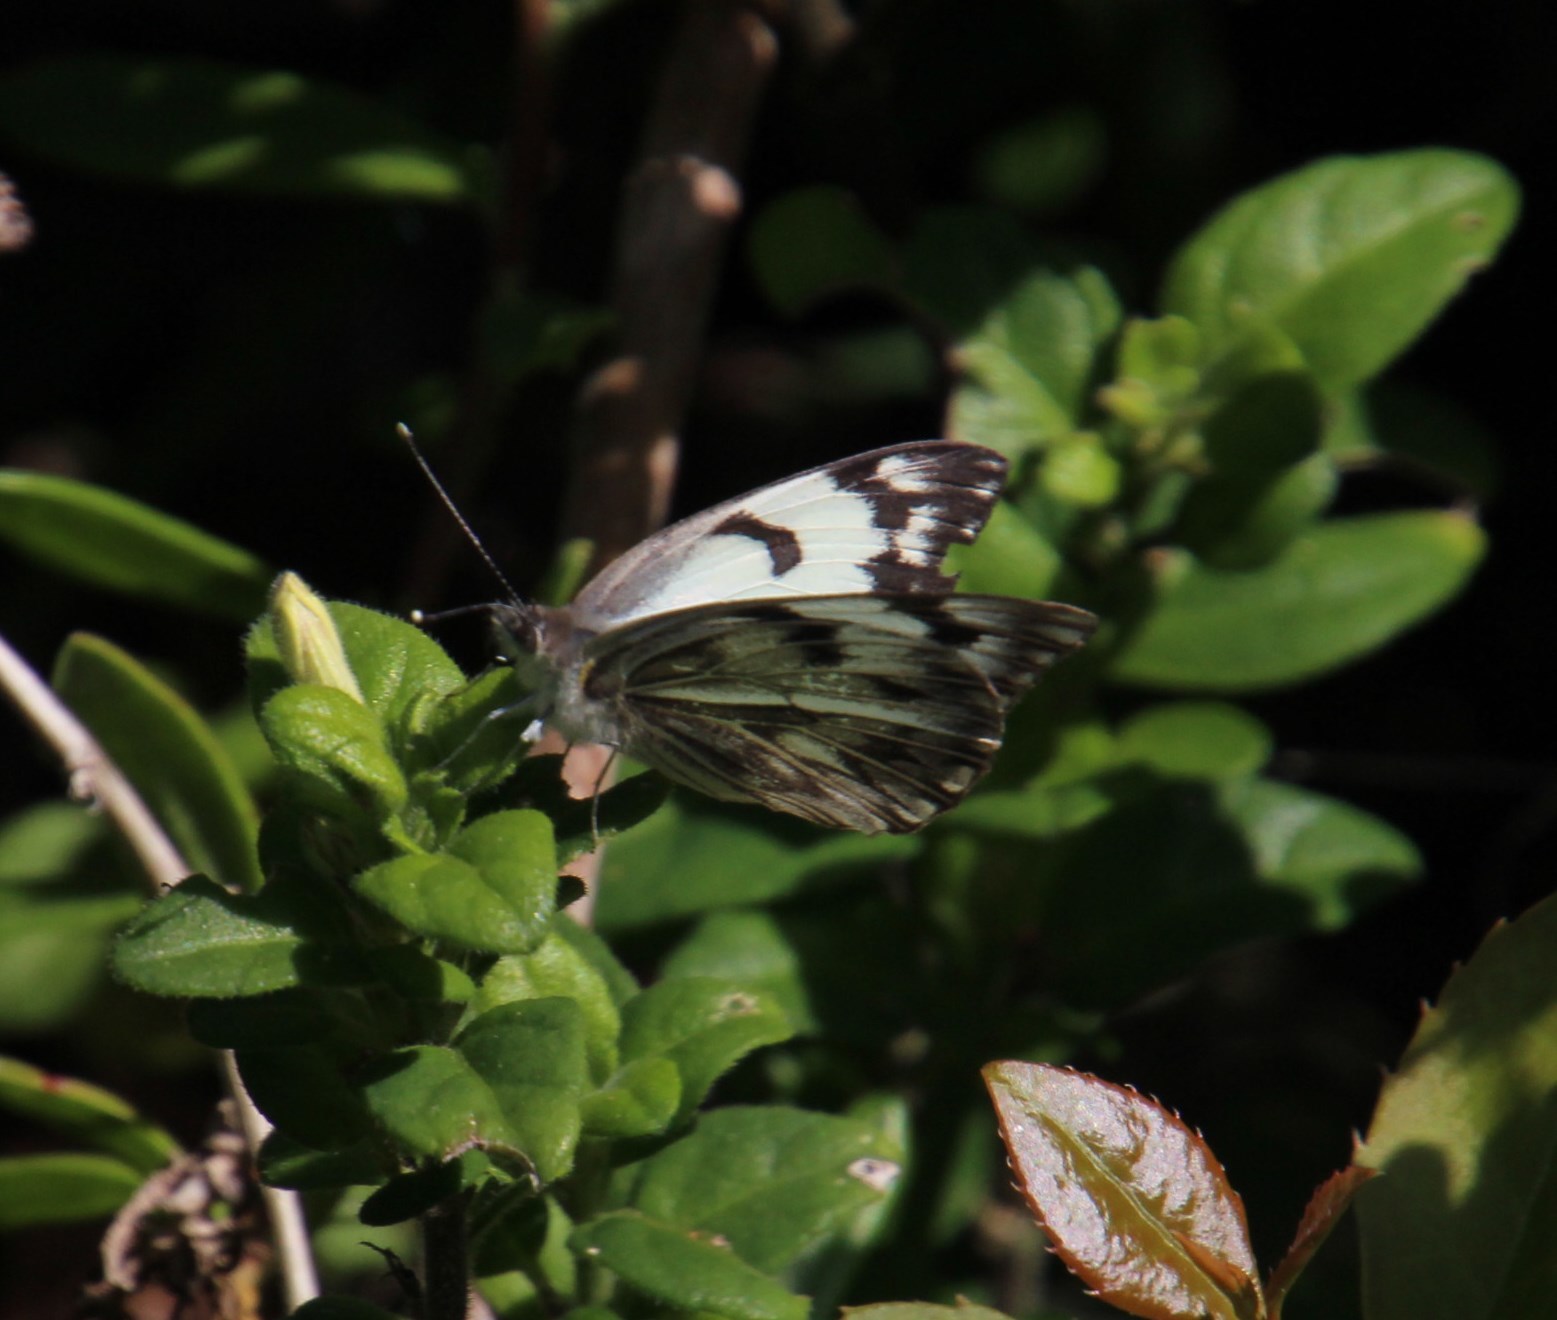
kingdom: Animalia
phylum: Arthropoda
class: Insecta
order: Lepidoptera
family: Pieridae
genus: Belenois
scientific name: Belenois gidica
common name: Pointed caper white
